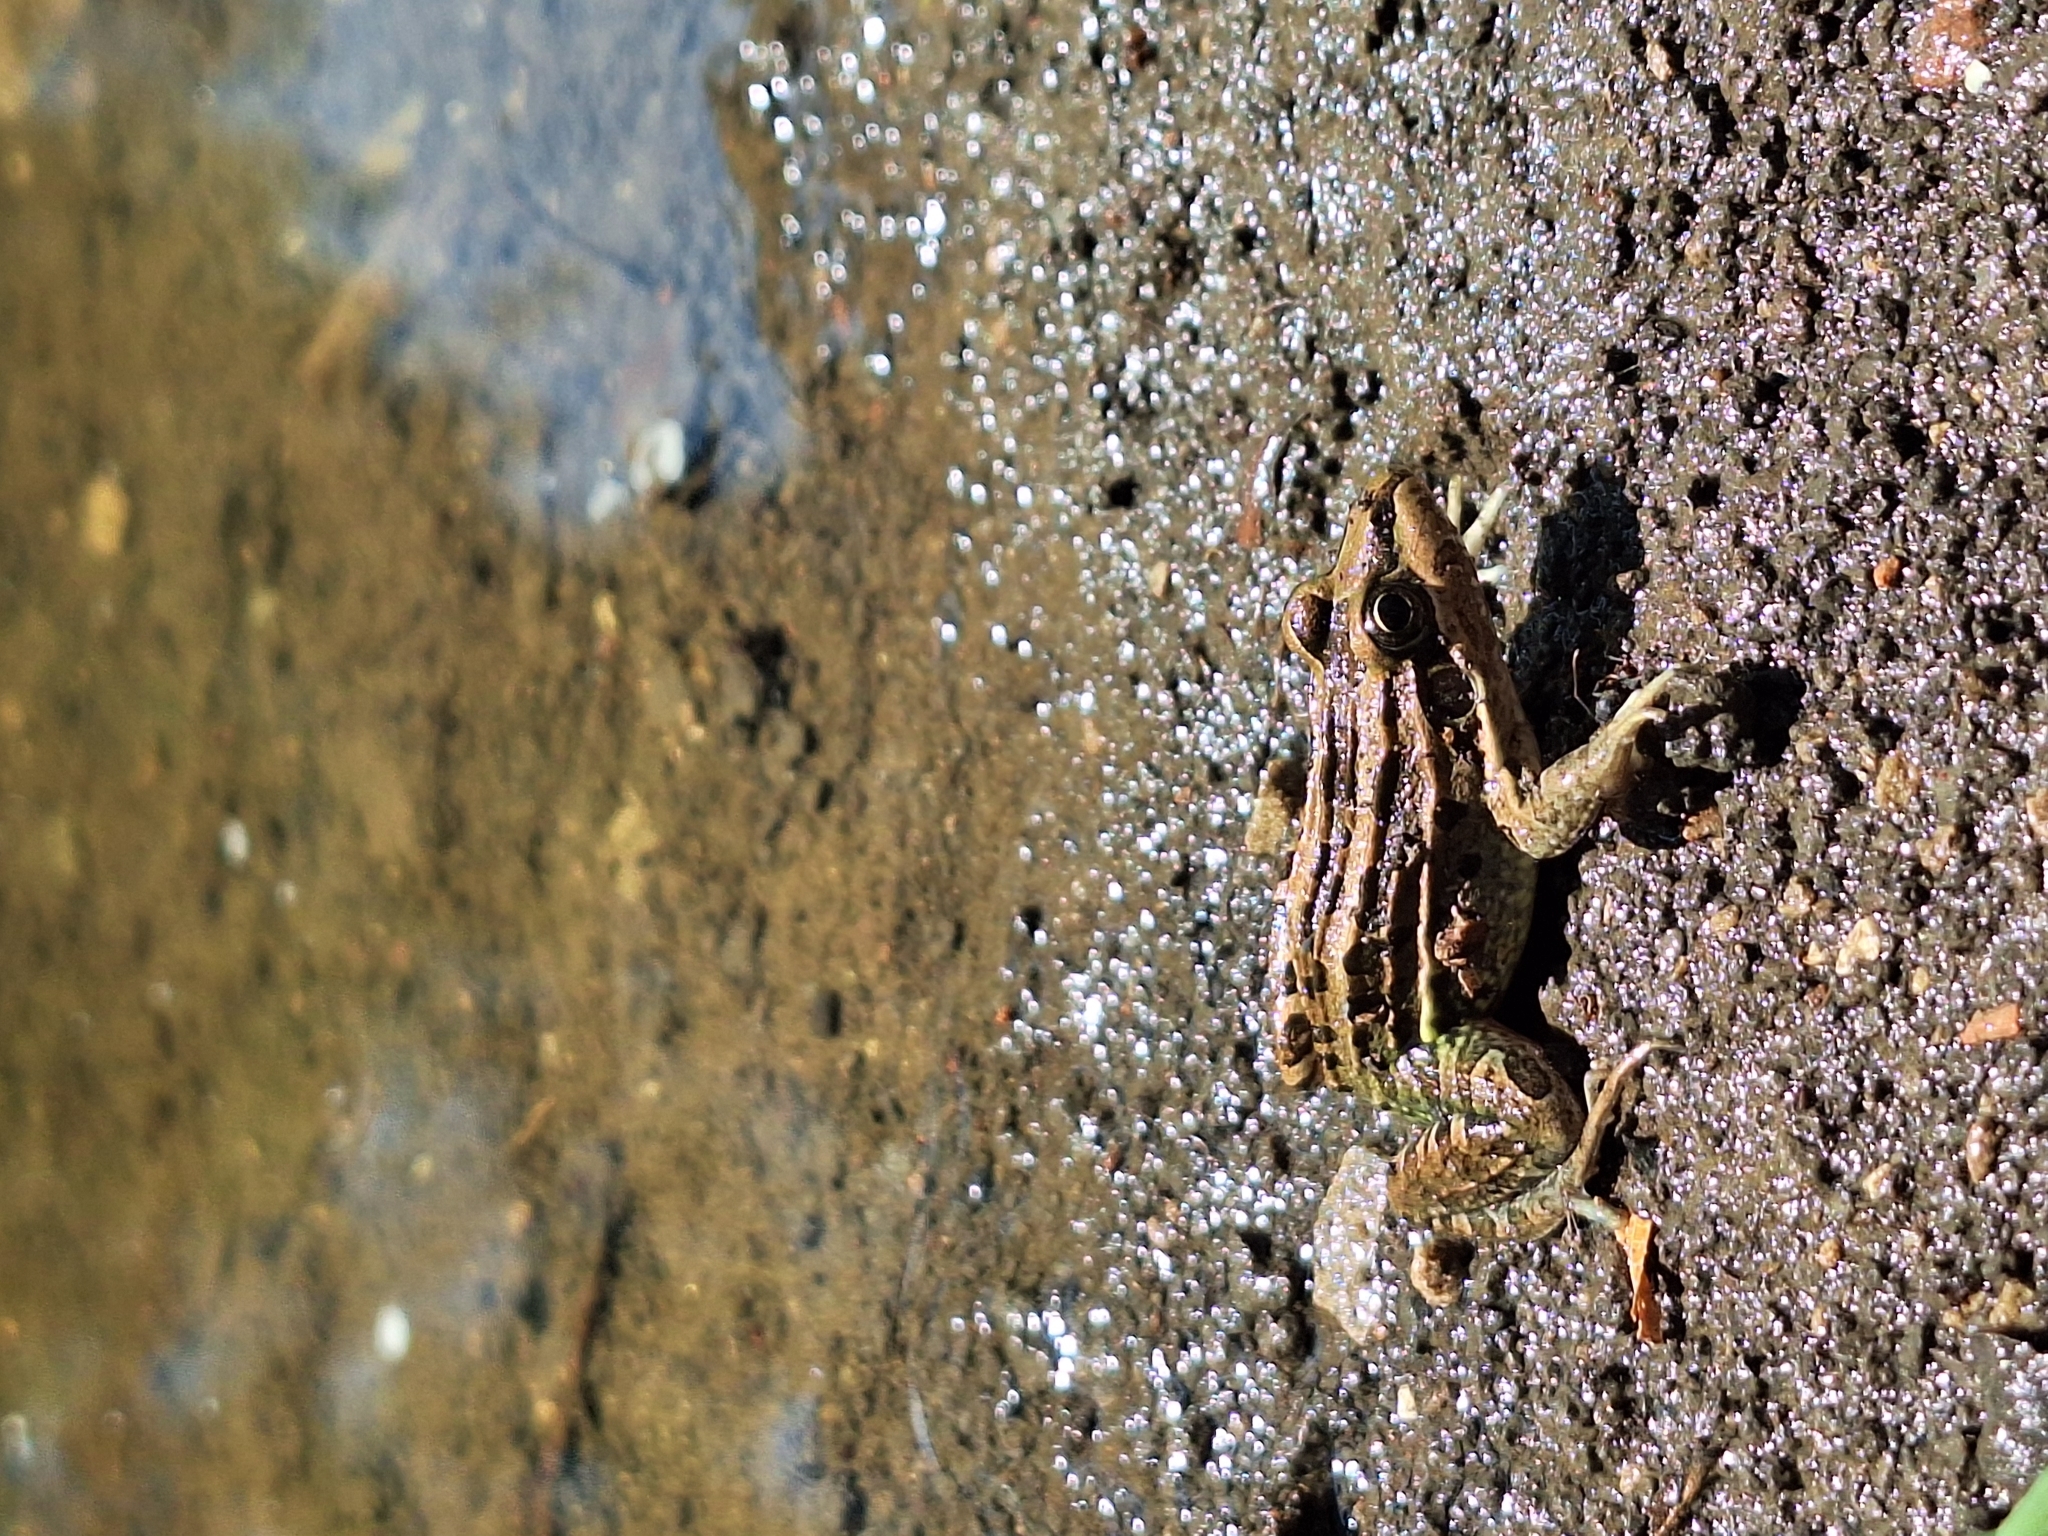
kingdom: Animalia
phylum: Chordata
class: Amphibia
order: Anura
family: Leptodactylidae
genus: Leptodactylus
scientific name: Leptodactylus luctator
